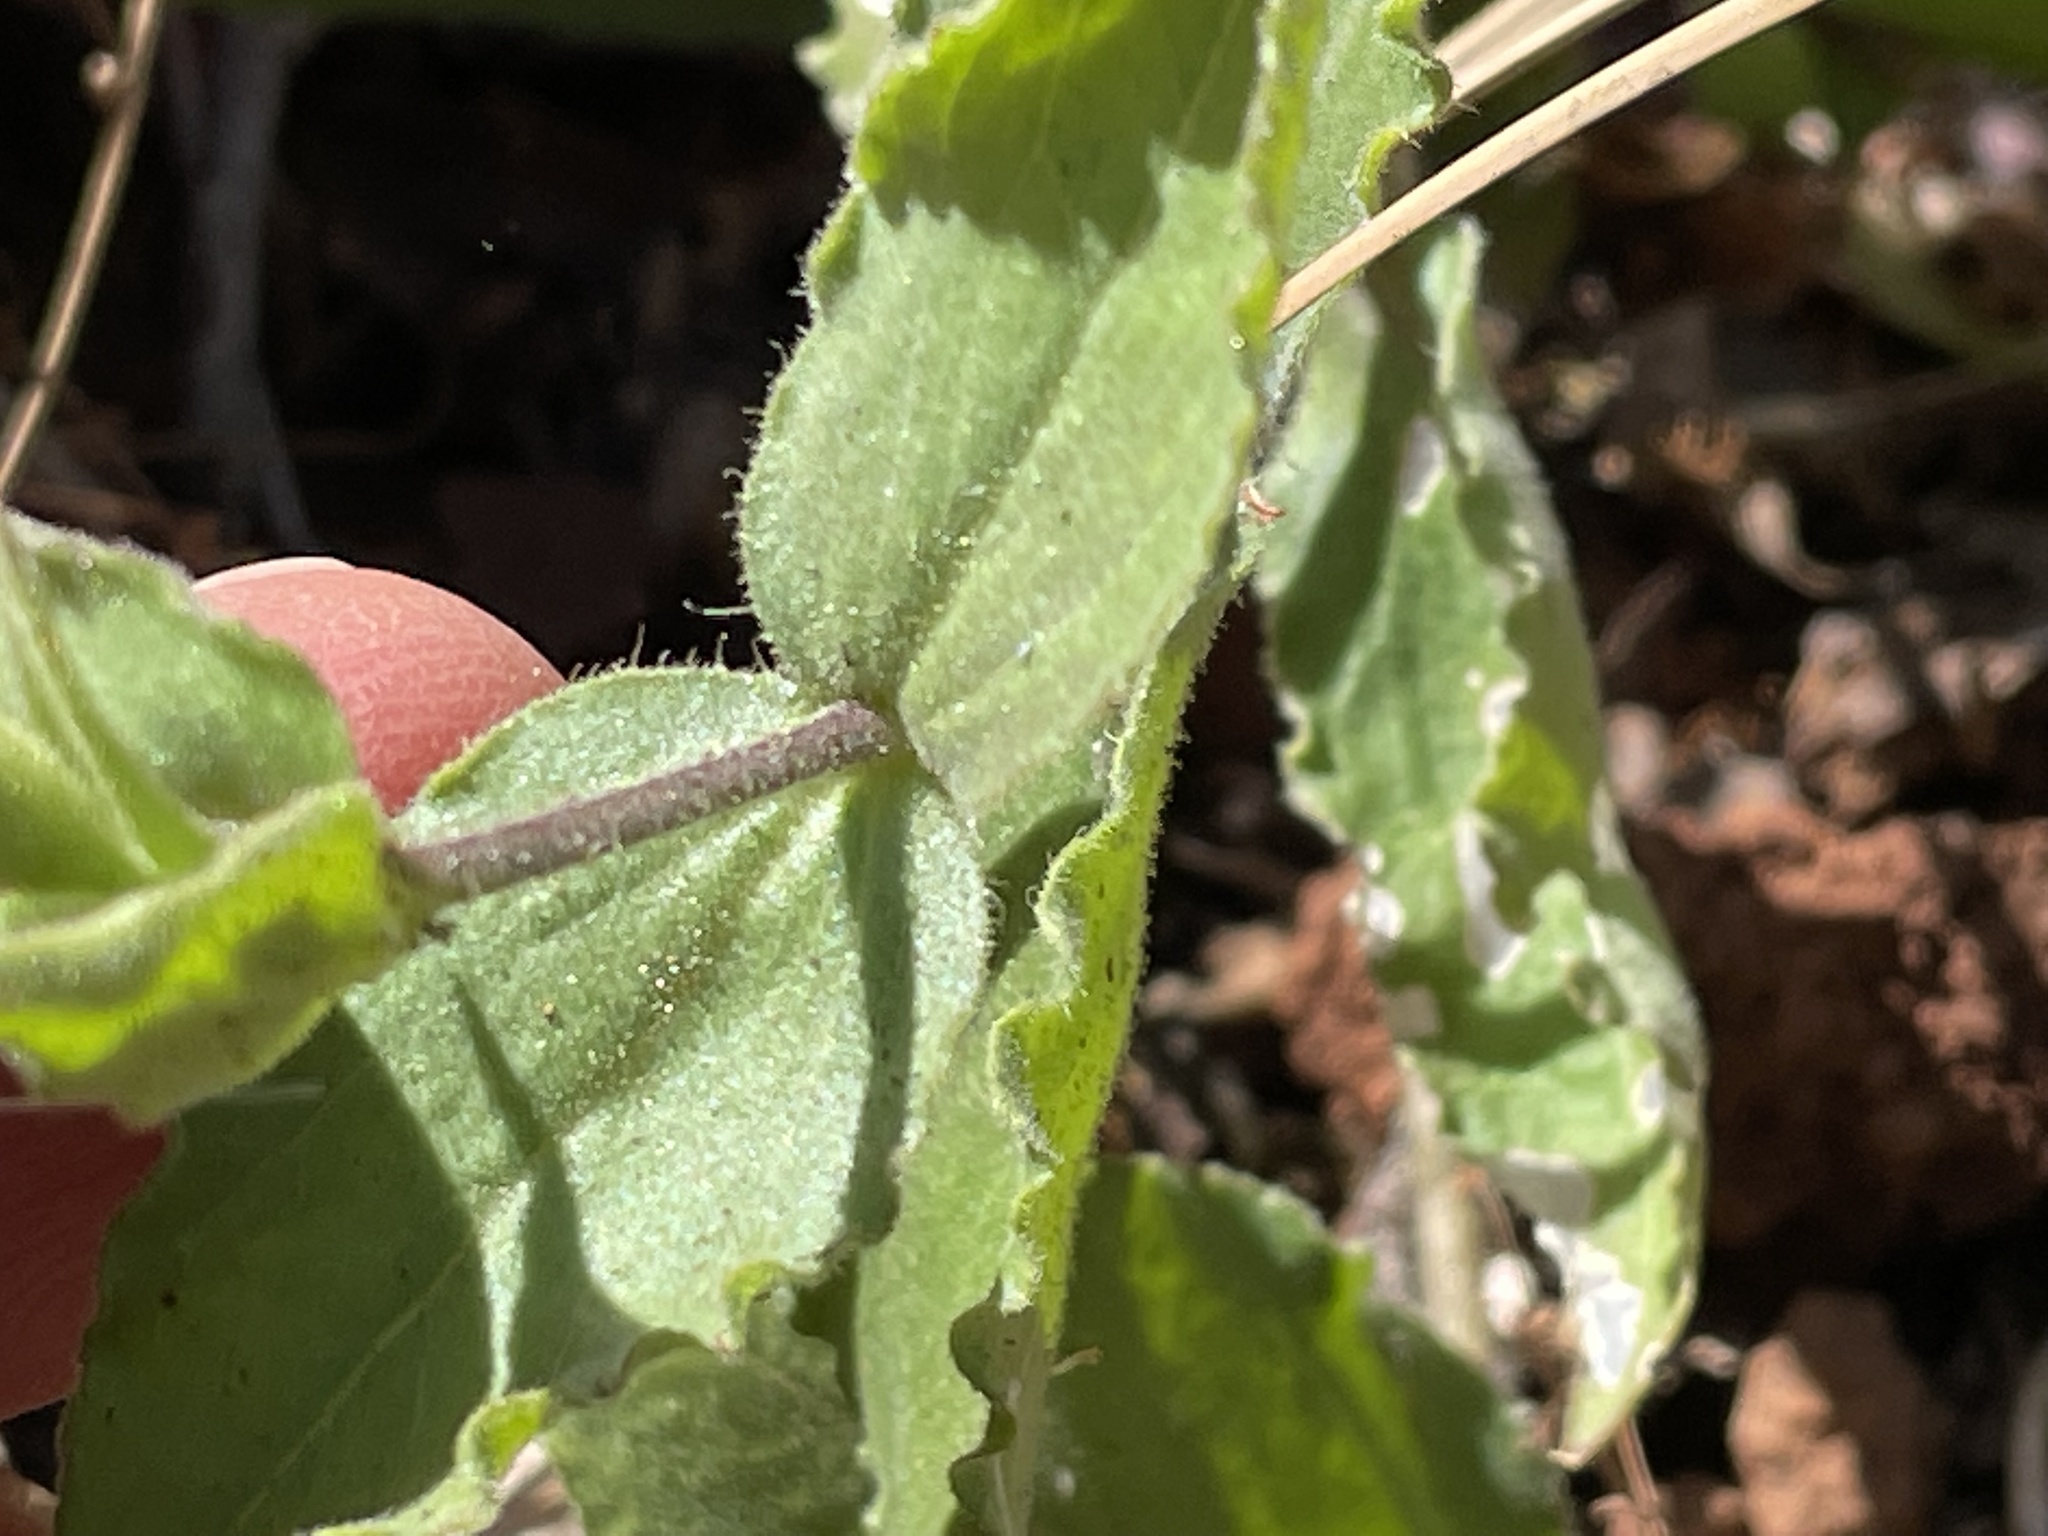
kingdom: Plantae
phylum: Tracheophyta
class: Magnoliopsida
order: Caryophyllales
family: Caryophyllaceae
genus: Silene
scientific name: Silene laciniata
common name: Indian-pink
